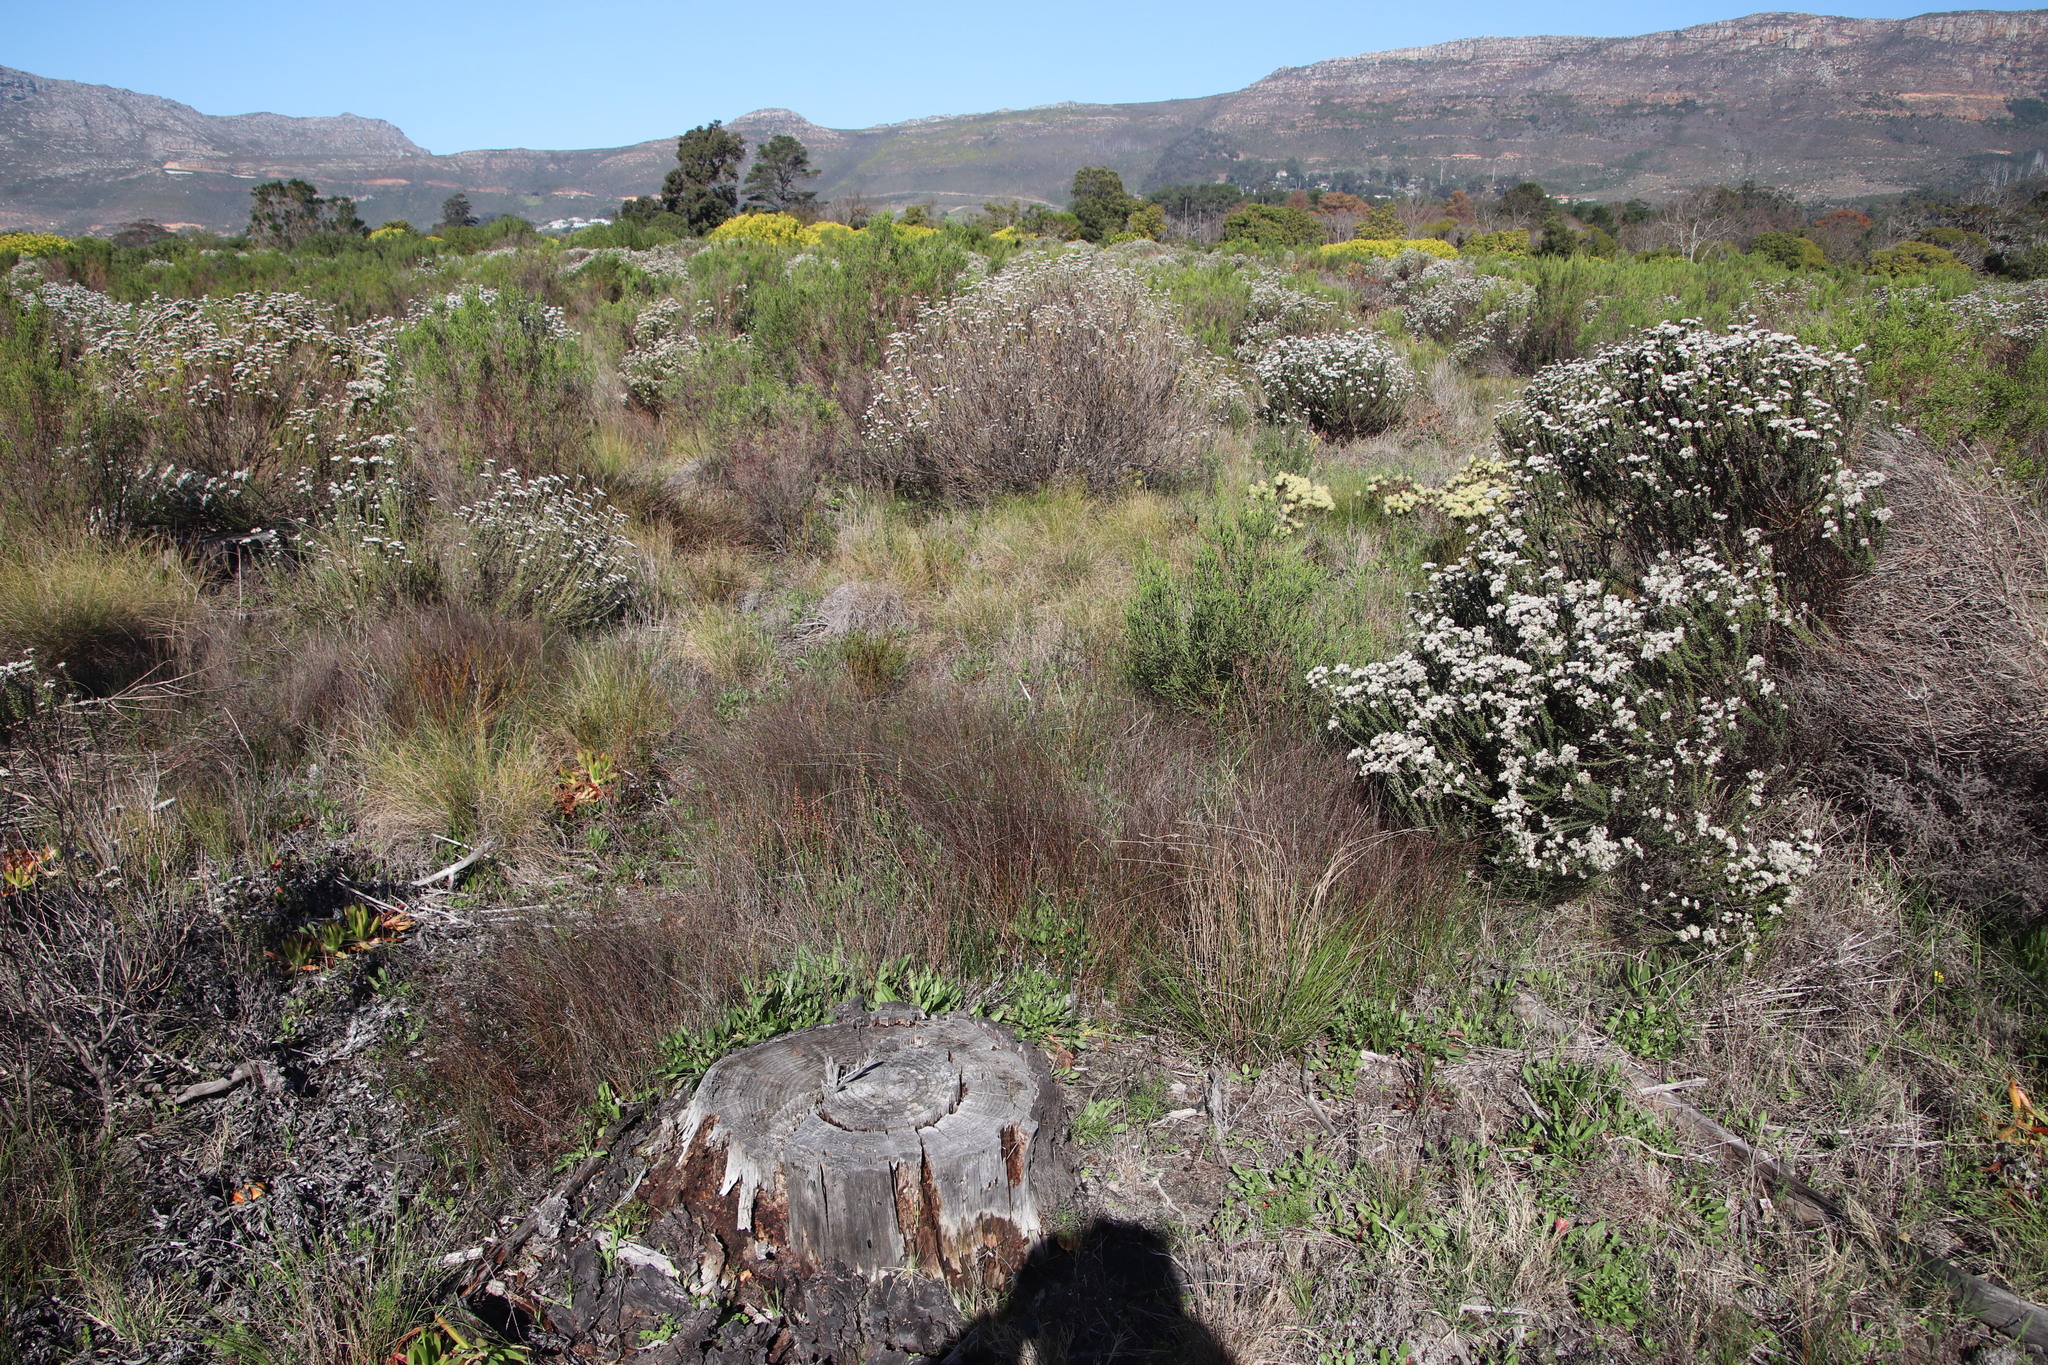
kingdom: Plantae
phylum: Tracheophyta
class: Liliopsida
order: Poales
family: Cyperaceae
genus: Ficinia
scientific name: Ficinia indica
